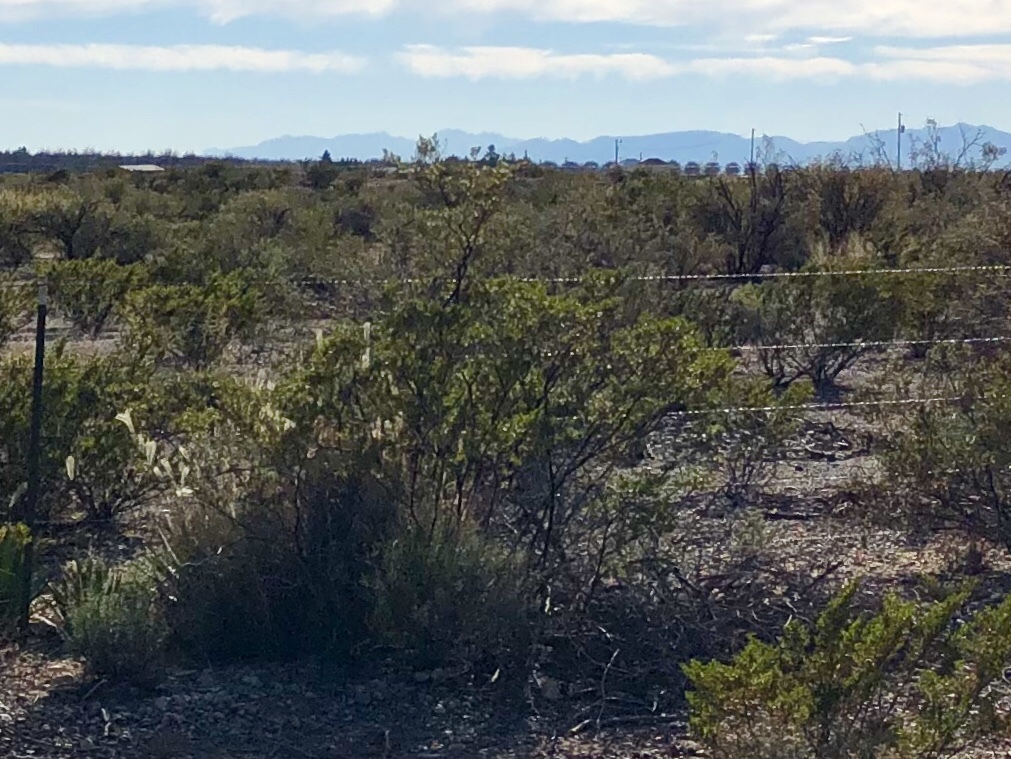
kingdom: Plantae
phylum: Tracheophyta
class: Magnoliopsida
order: Zygophyllales
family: Zygophyllaceae
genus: Larrea
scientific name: Larrea tridentata
